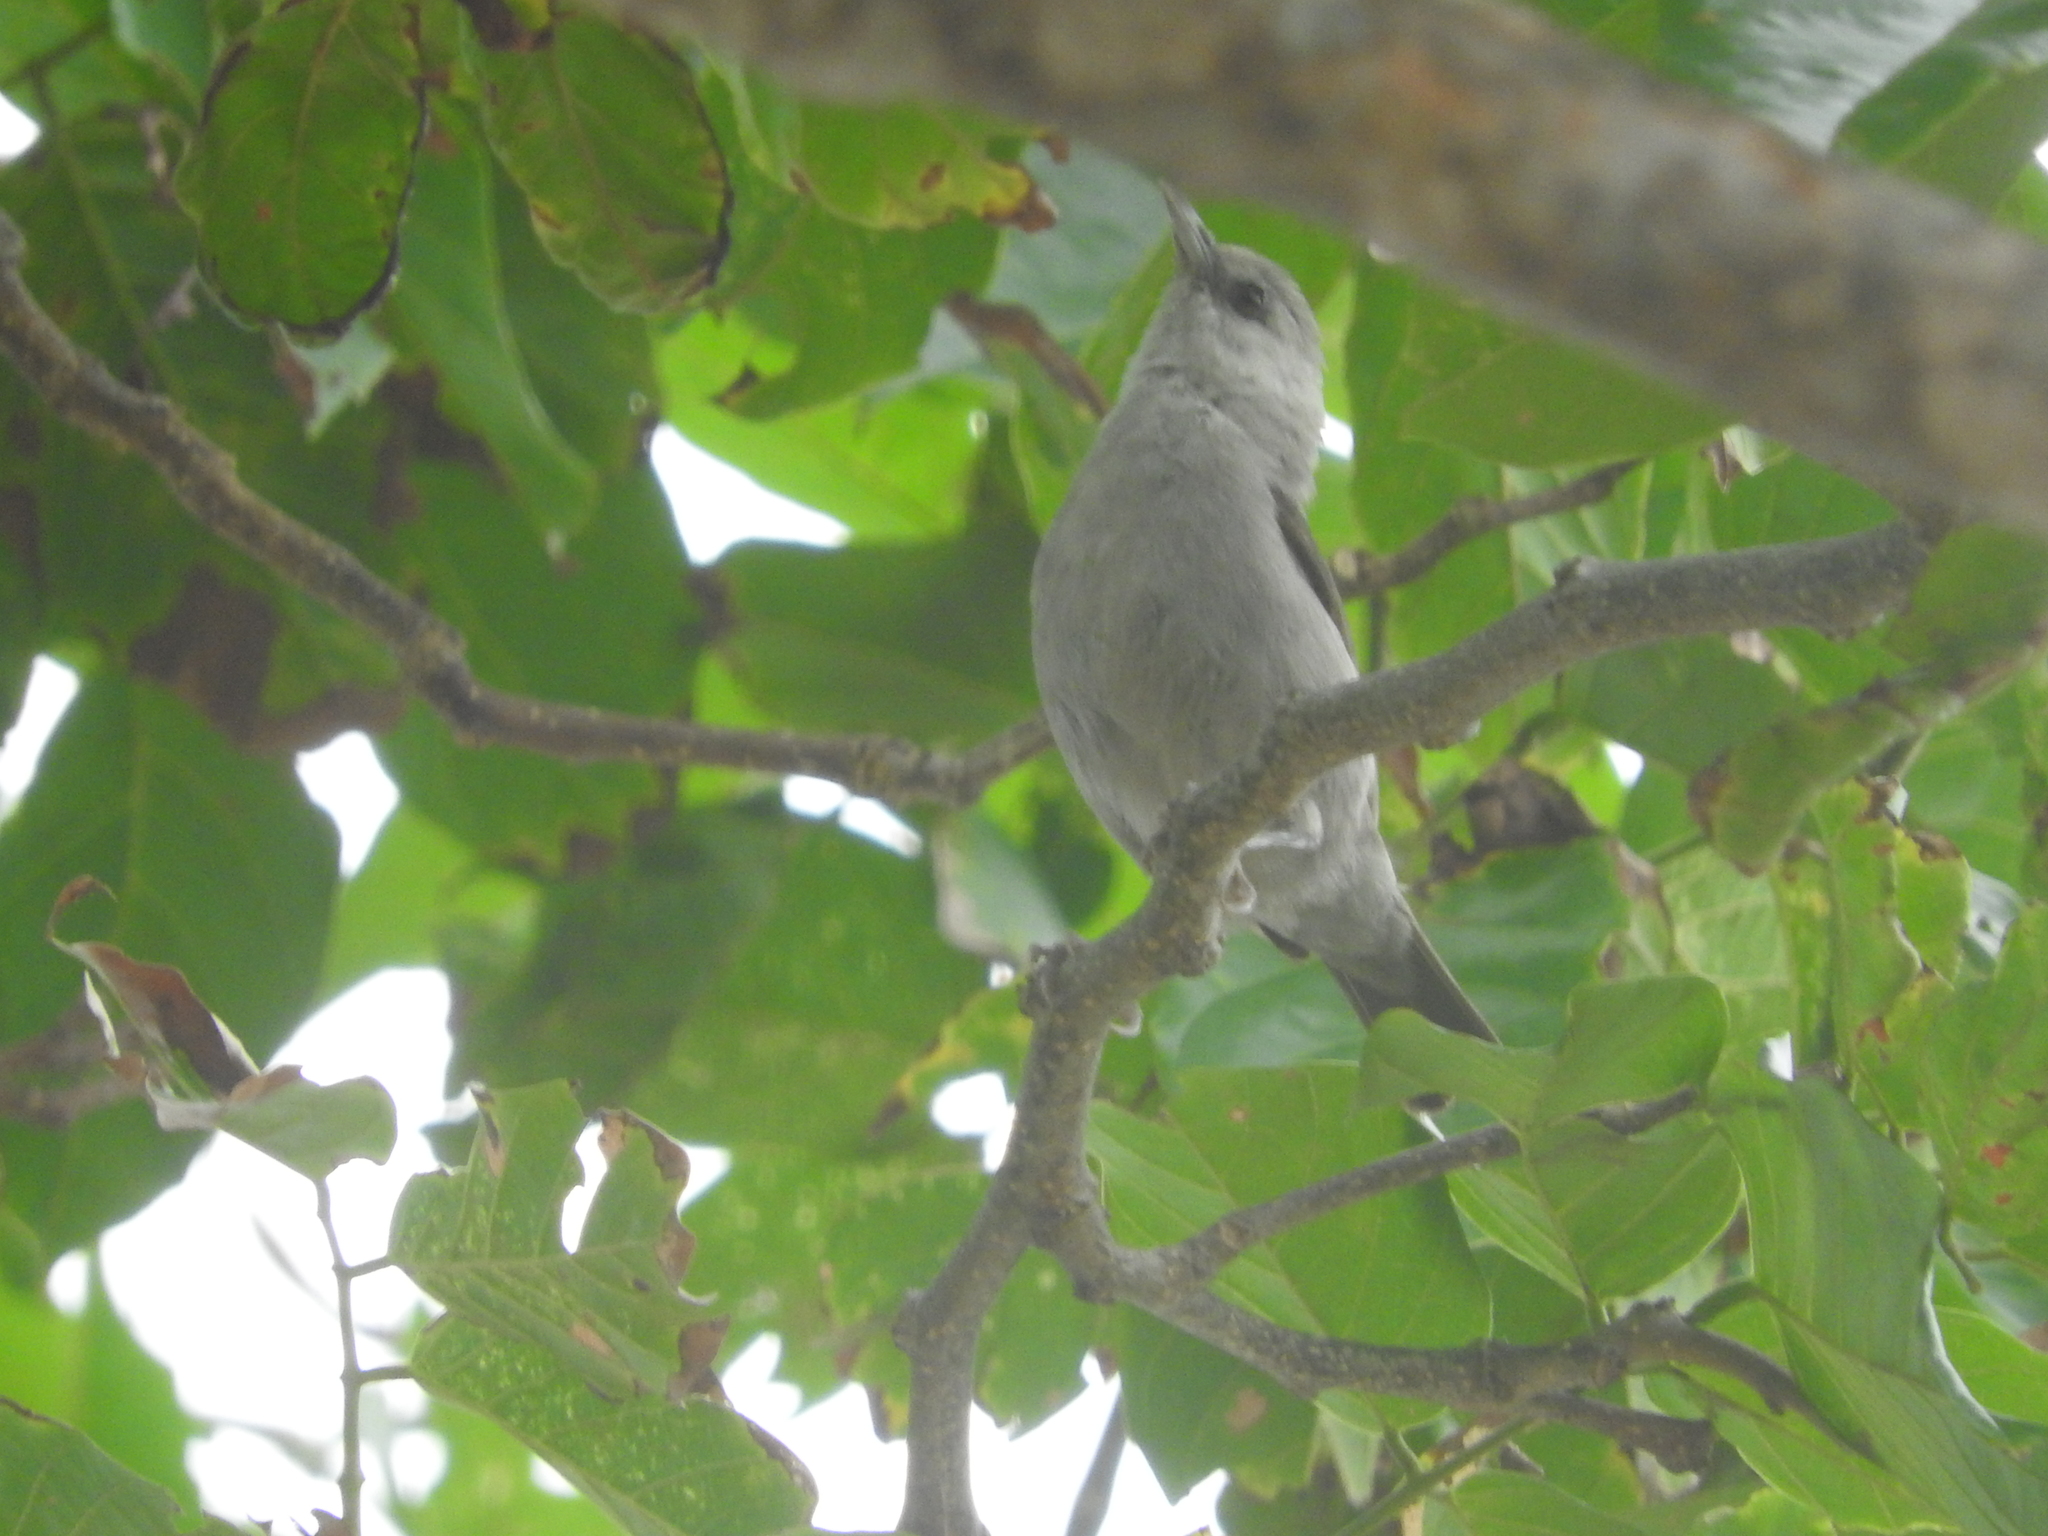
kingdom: Animalia
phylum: Chordata
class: Aves
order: Passeriformes
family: Zosteropidae
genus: Zosterops
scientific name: Zosterops leucophaeus
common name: Principe speirops
